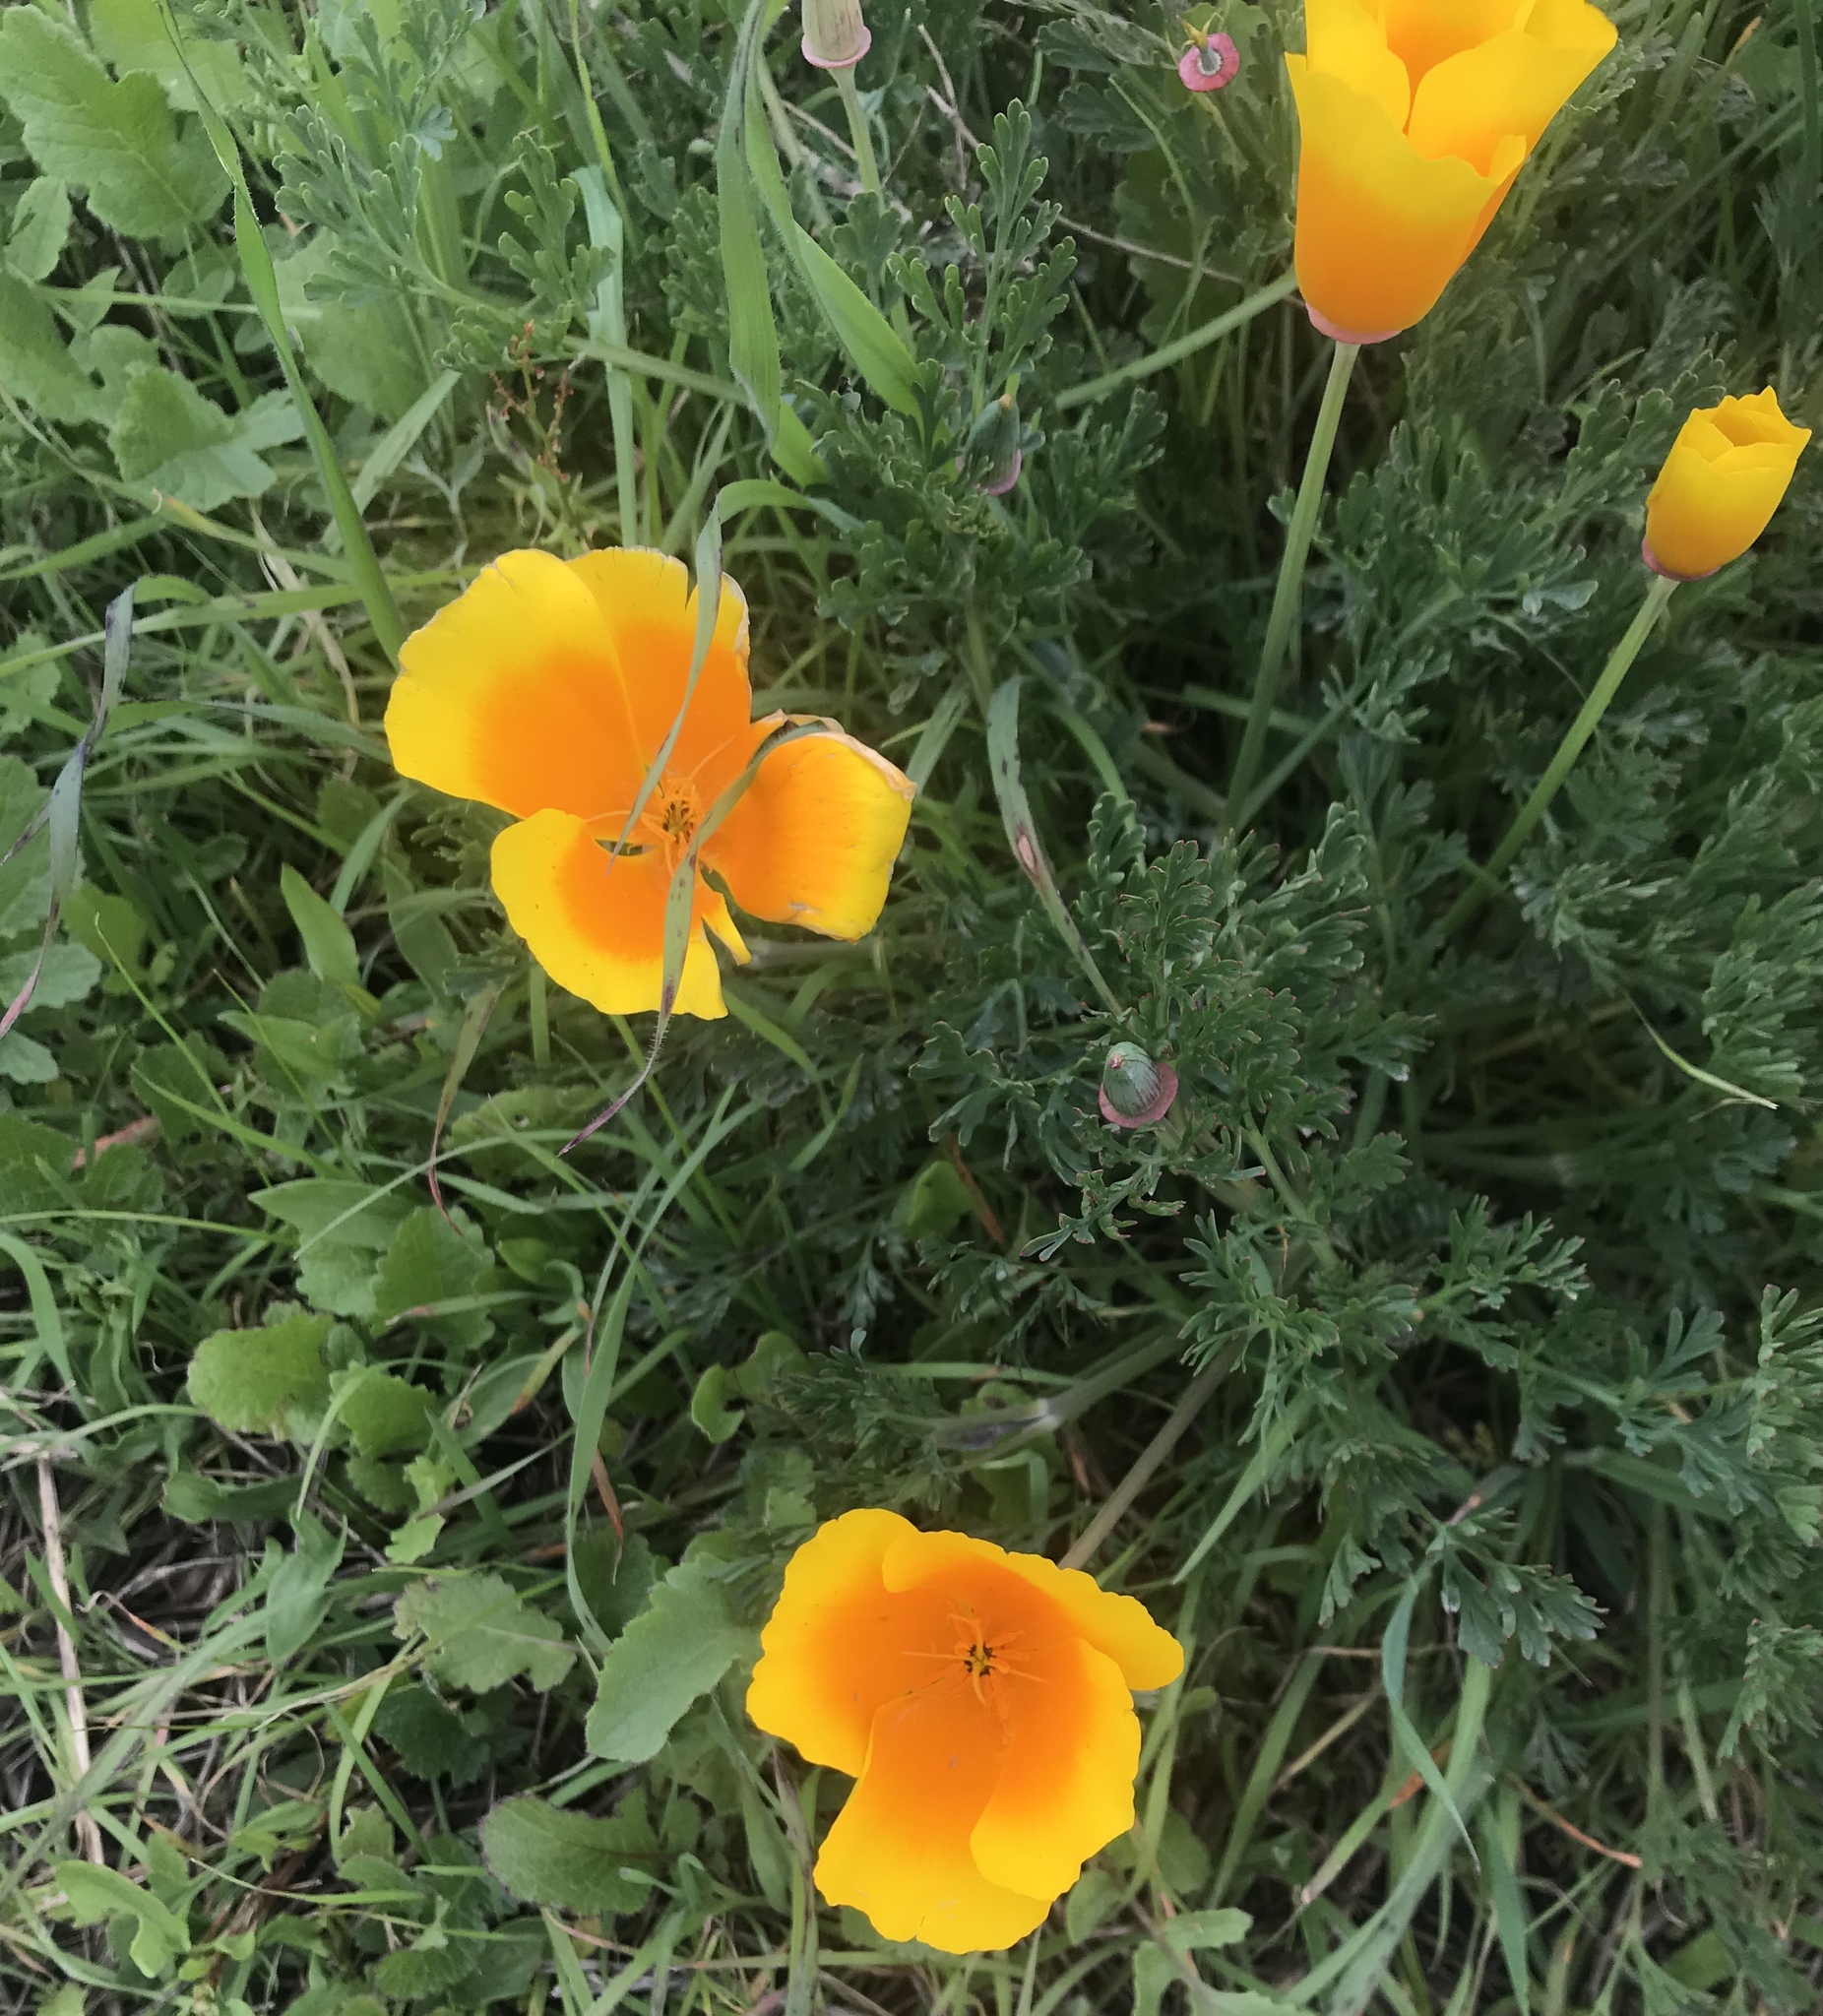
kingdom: Plantae
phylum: Tracheophyta
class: Magnoliopsida
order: Ranunculales
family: Papaveraceae
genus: Eschscholzia
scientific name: Eschscholzia californica
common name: California poppy
